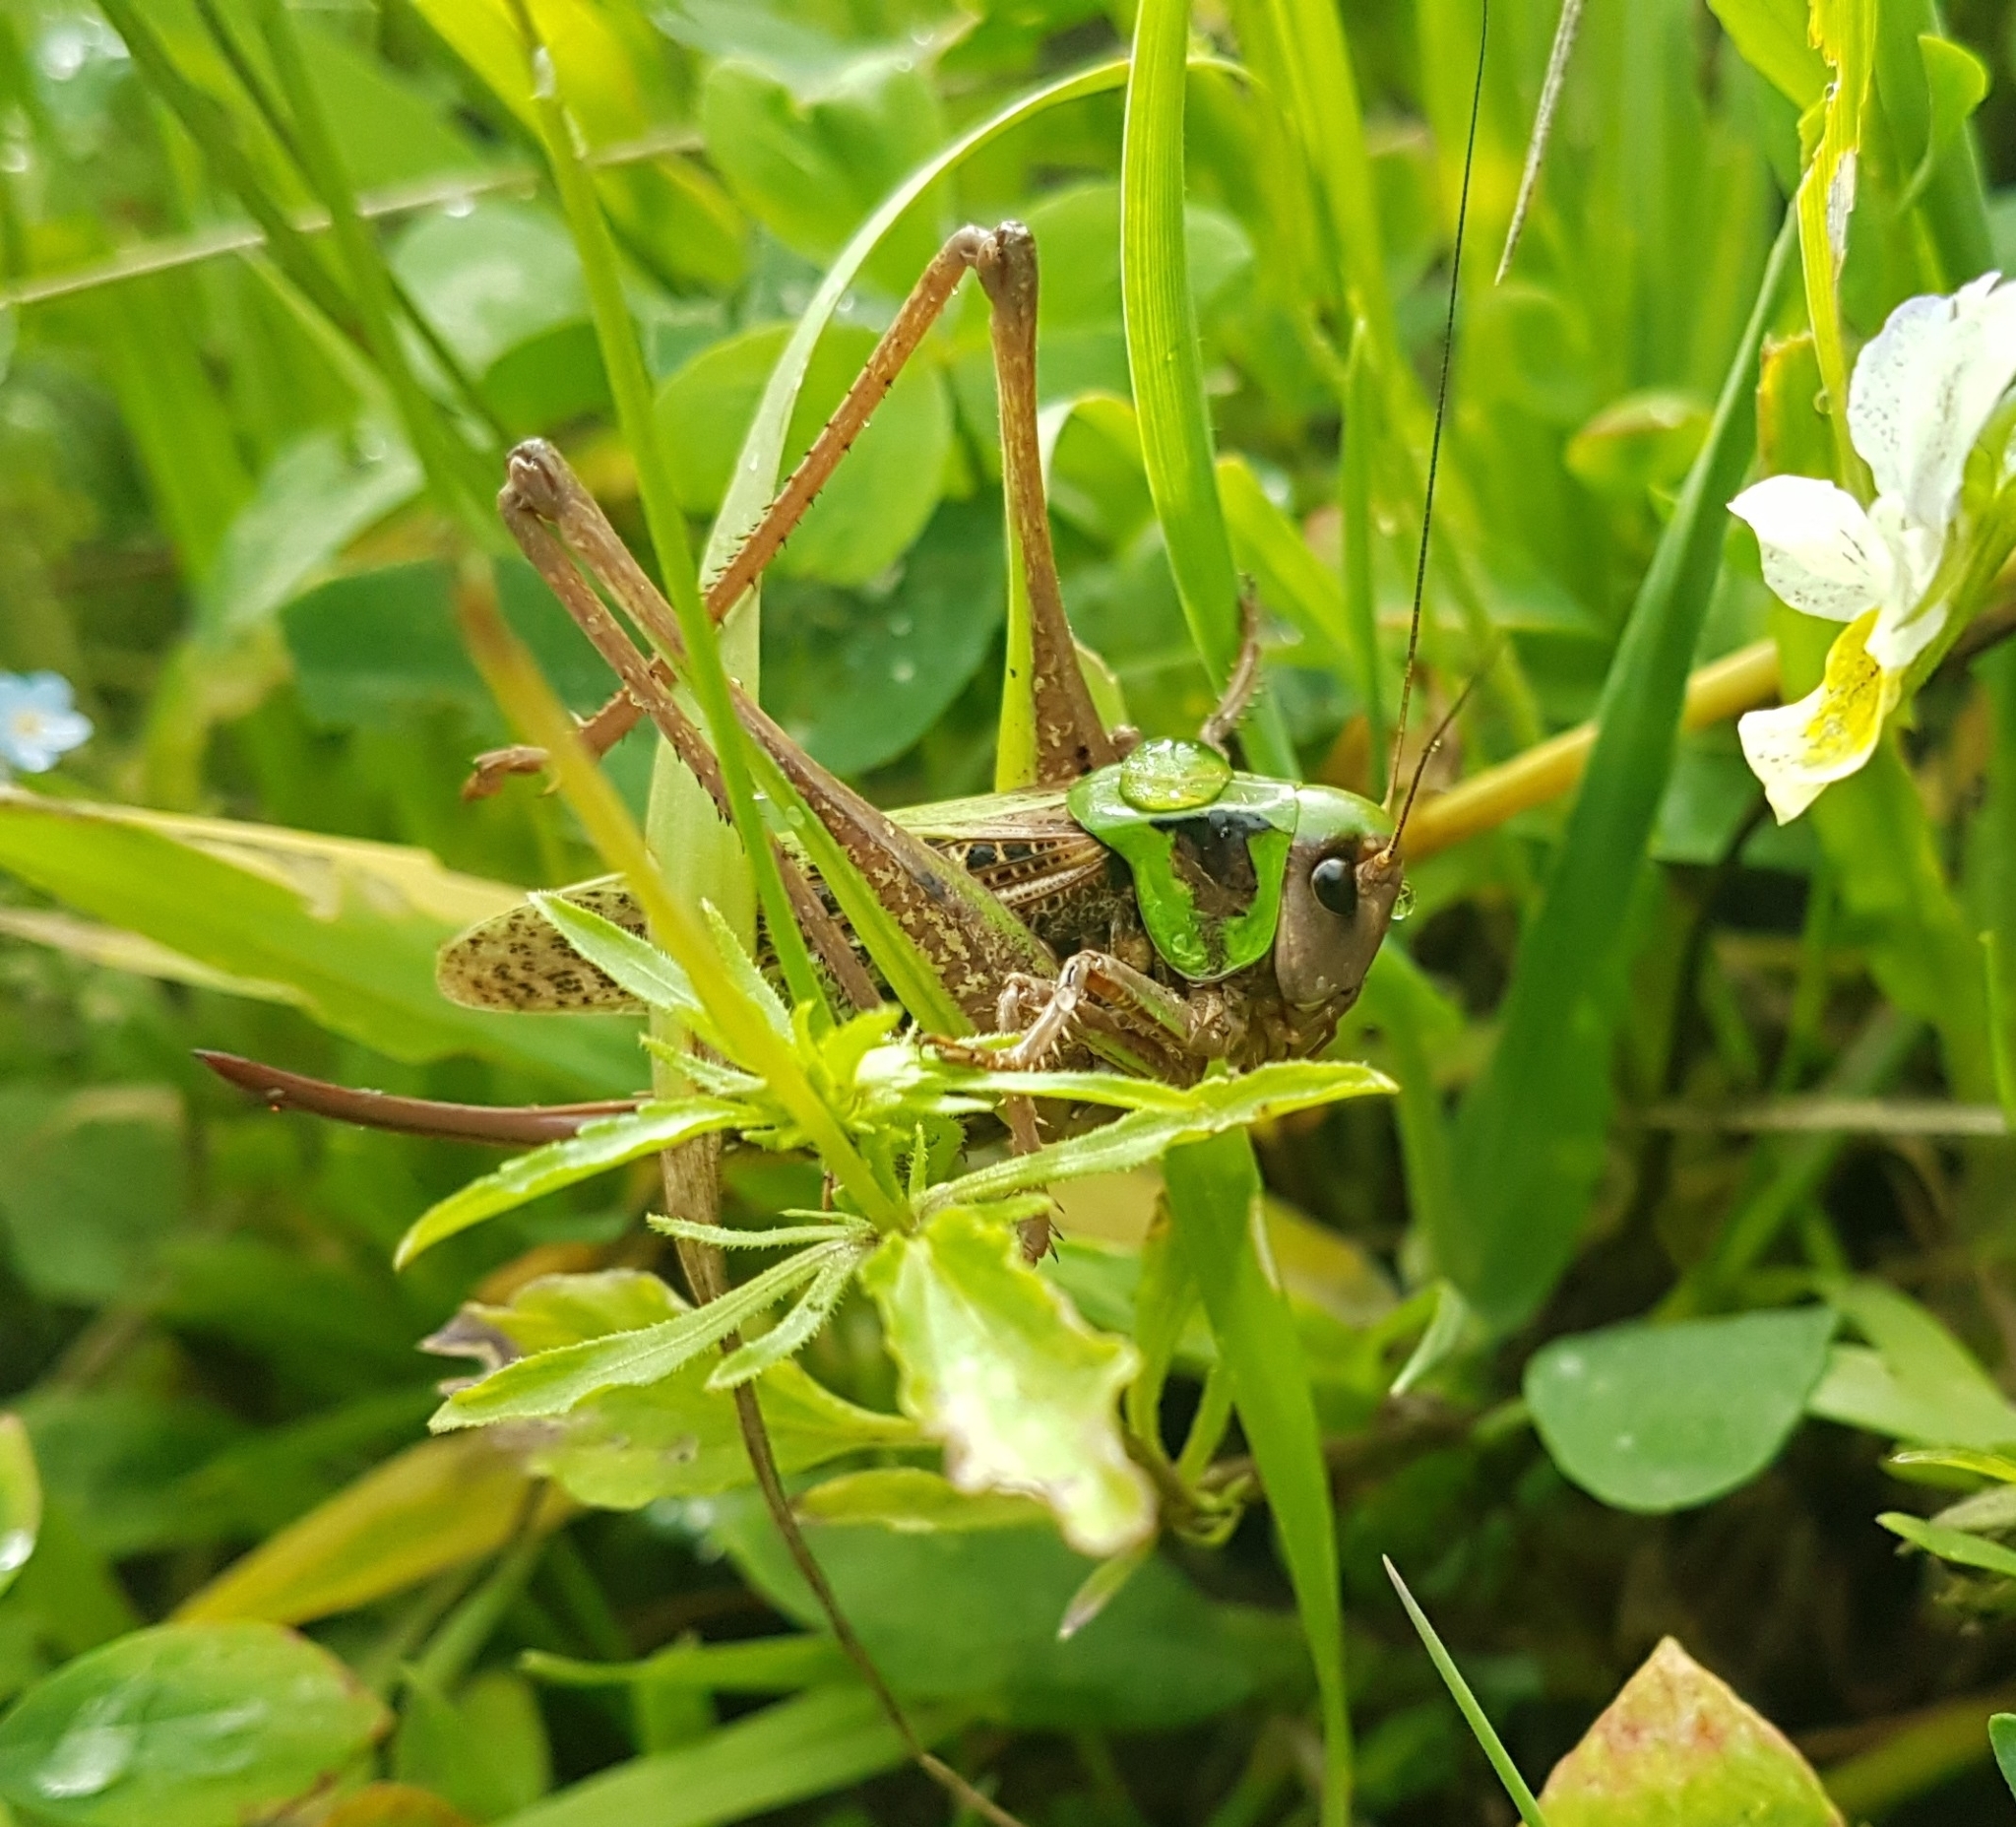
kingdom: Animalia
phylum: Arthropoda
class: Insecta
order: Orthoptera
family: Tettigoniidae
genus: Decticus
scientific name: Decticus verrucivorus
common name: Wart-biter
